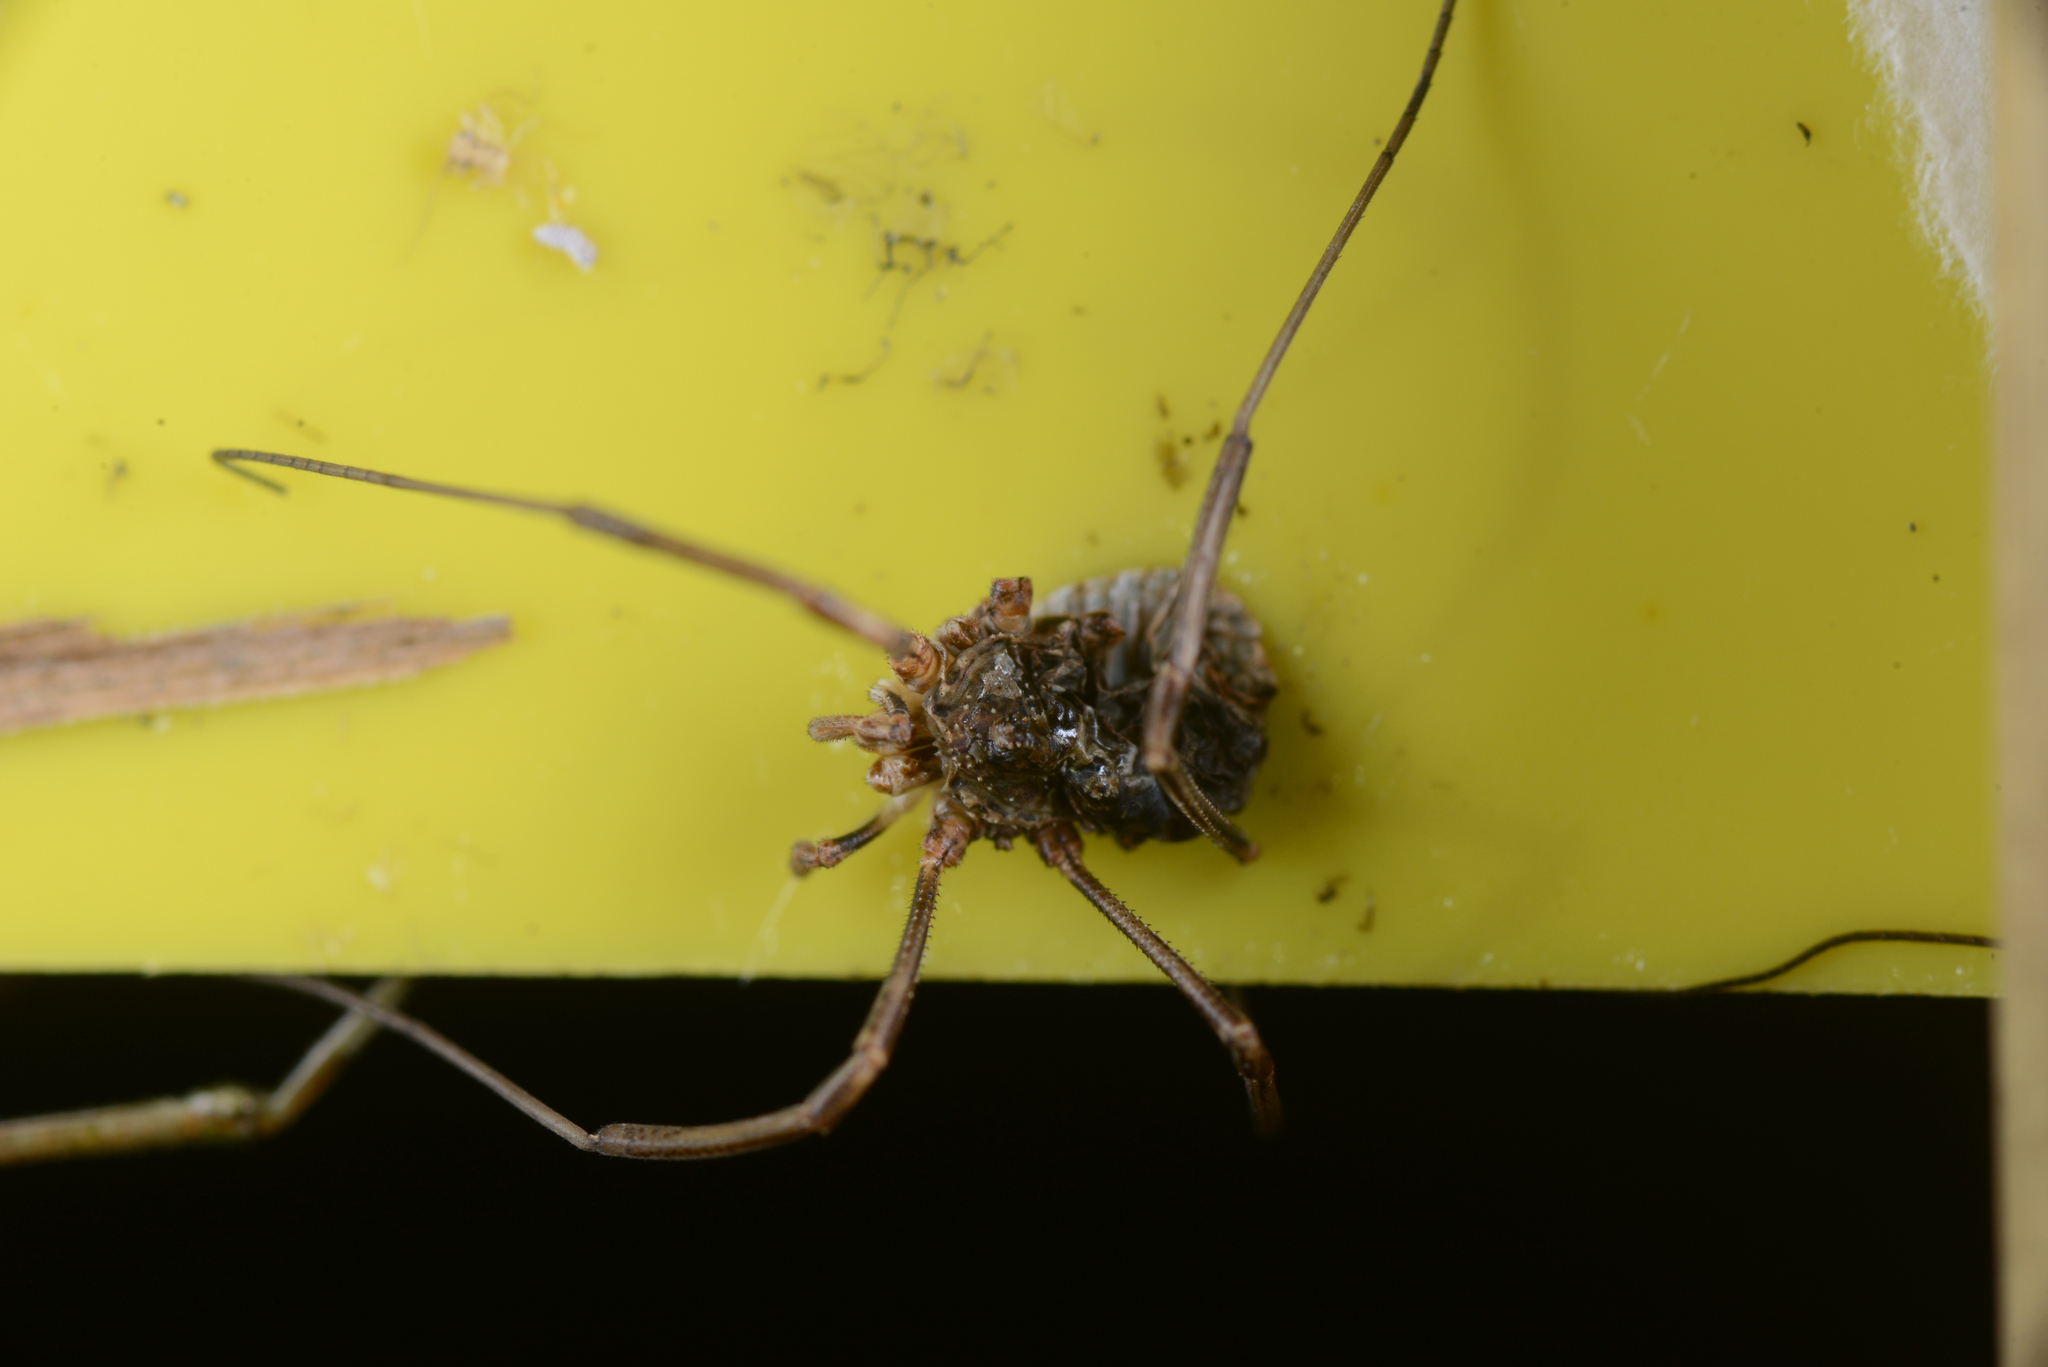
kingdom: Animalia
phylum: Arthropoda
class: Arachnida
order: Opiliones
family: Phalangiidae
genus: Phalangium
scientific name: Phalangium opilio
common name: Daddy longleg
